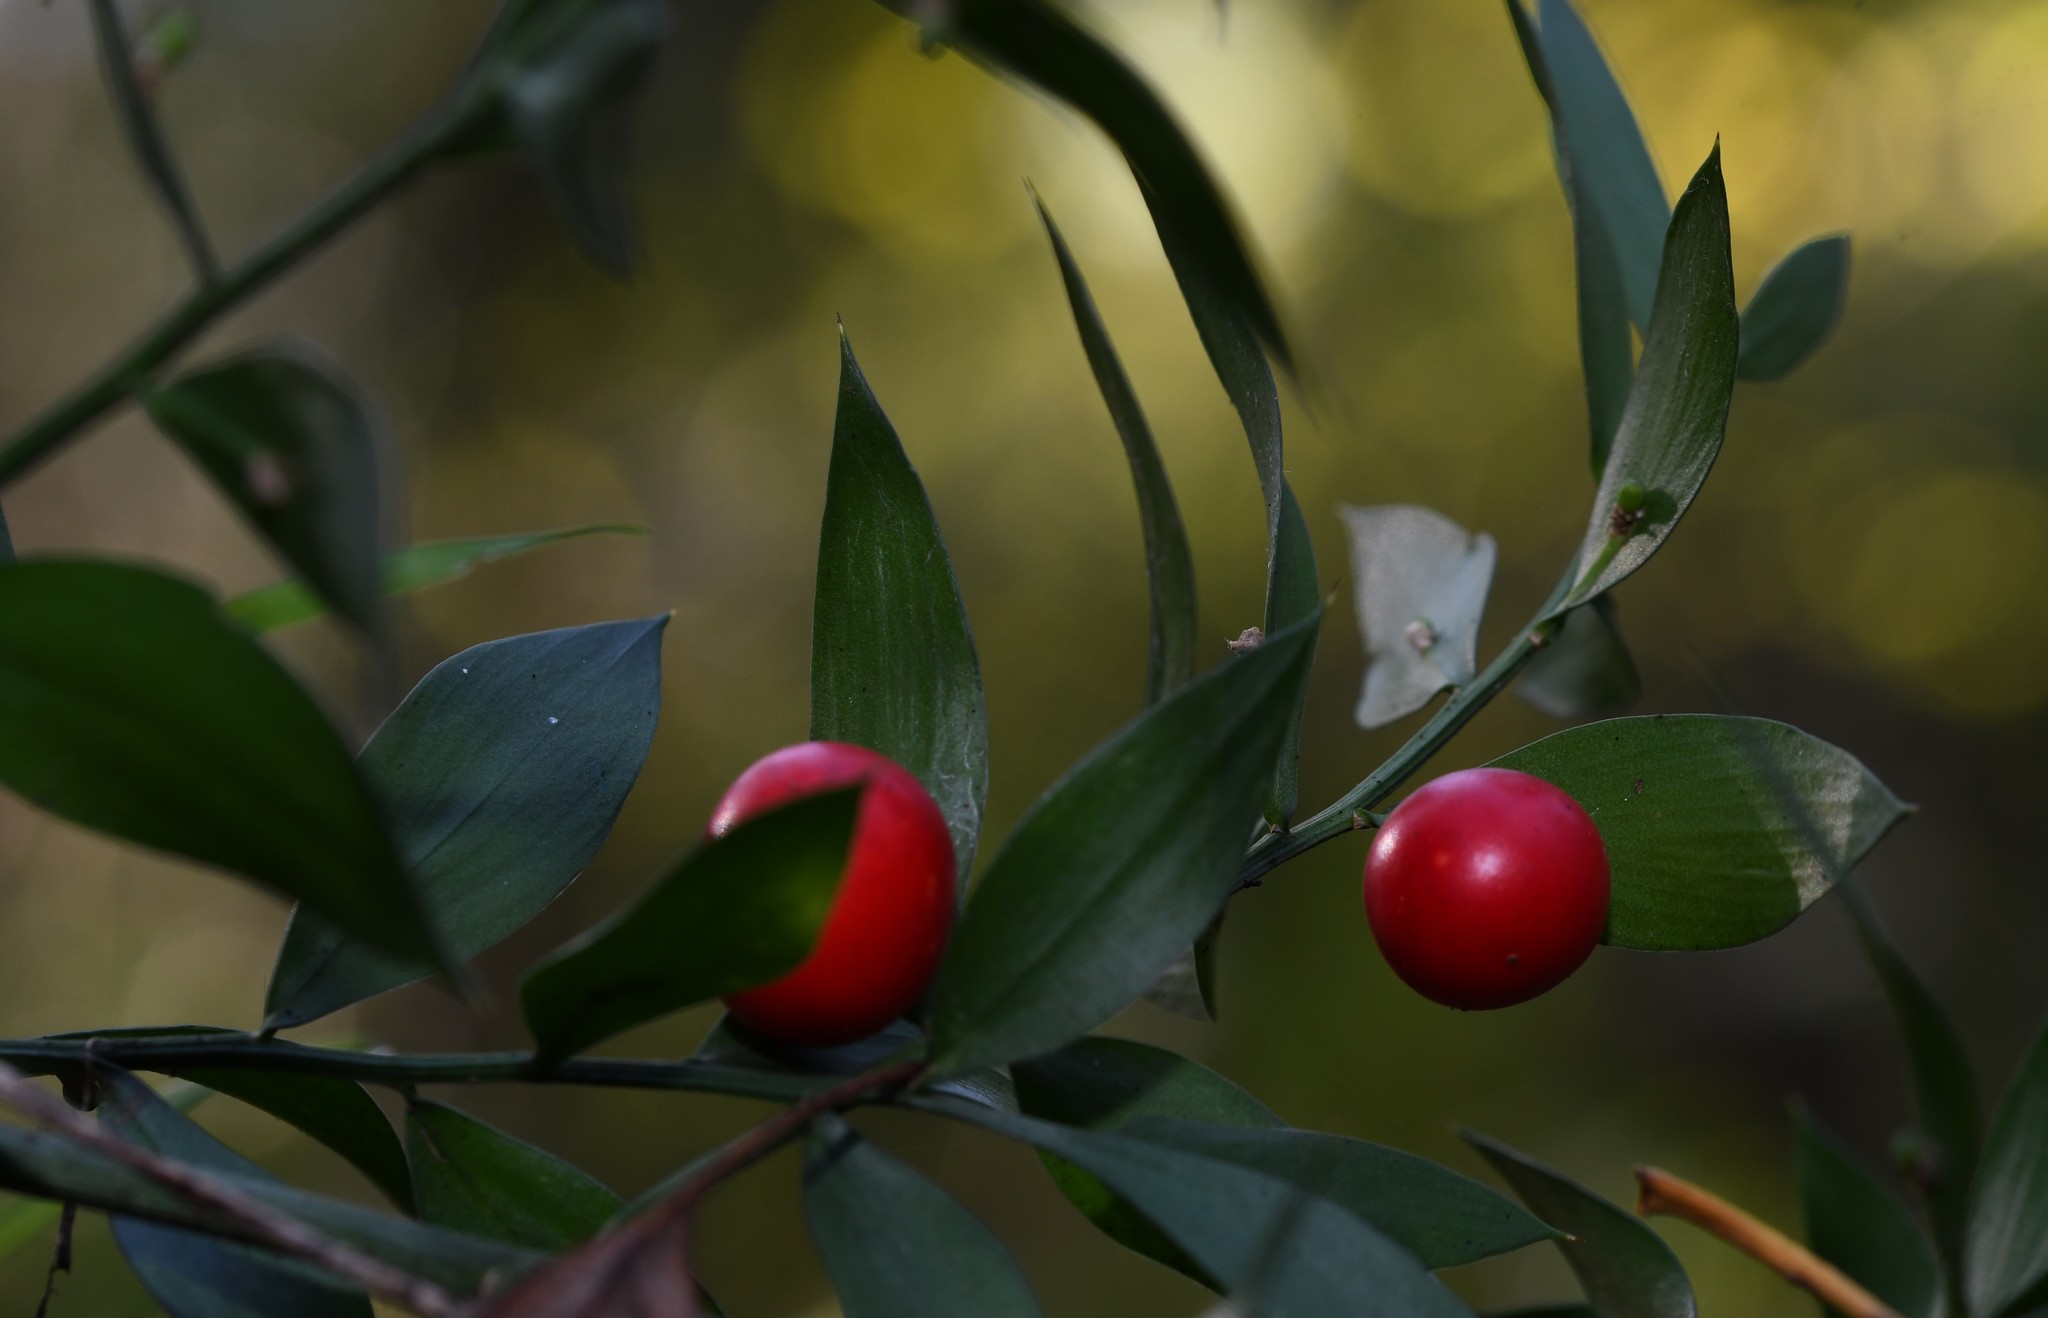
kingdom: Plantae
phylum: Tracheophyta
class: Liliopsida
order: Asparagales
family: Asparagaceae
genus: Ruscus
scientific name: Ruscus aculeatus
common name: Butcher's-broom
